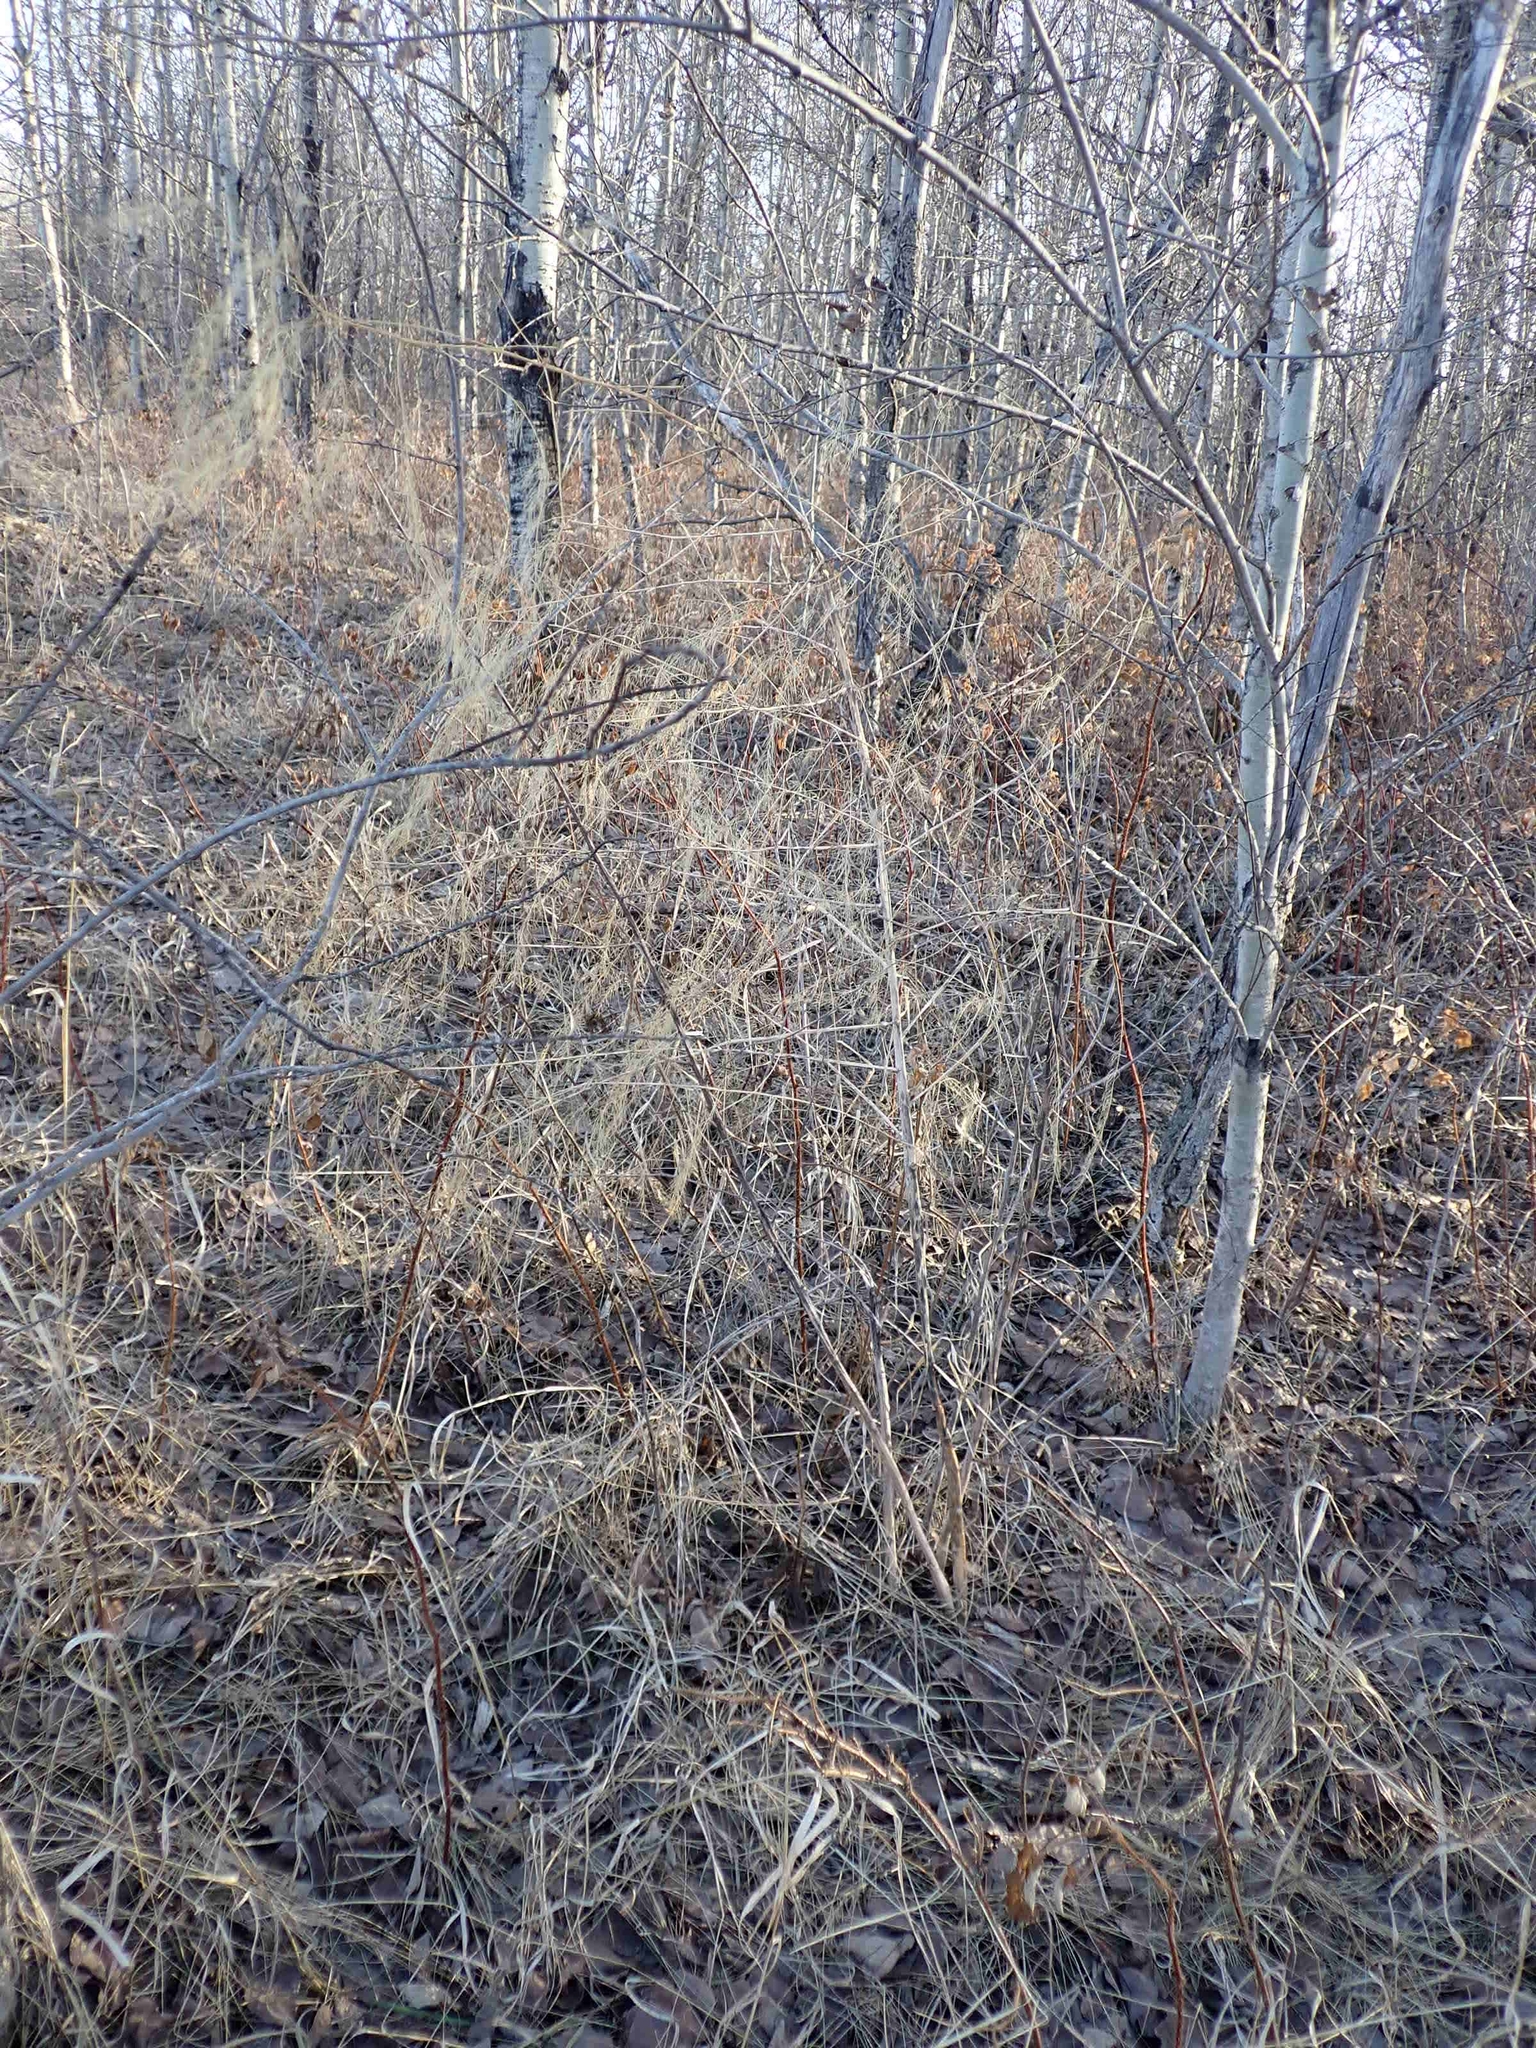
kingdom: Plantae
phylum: Tracheophyta
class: Liliopsida
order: Asparagales
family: Asparagaceae
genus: Asparagus
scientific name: Asparagus officinalis
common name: Garden asparagus
